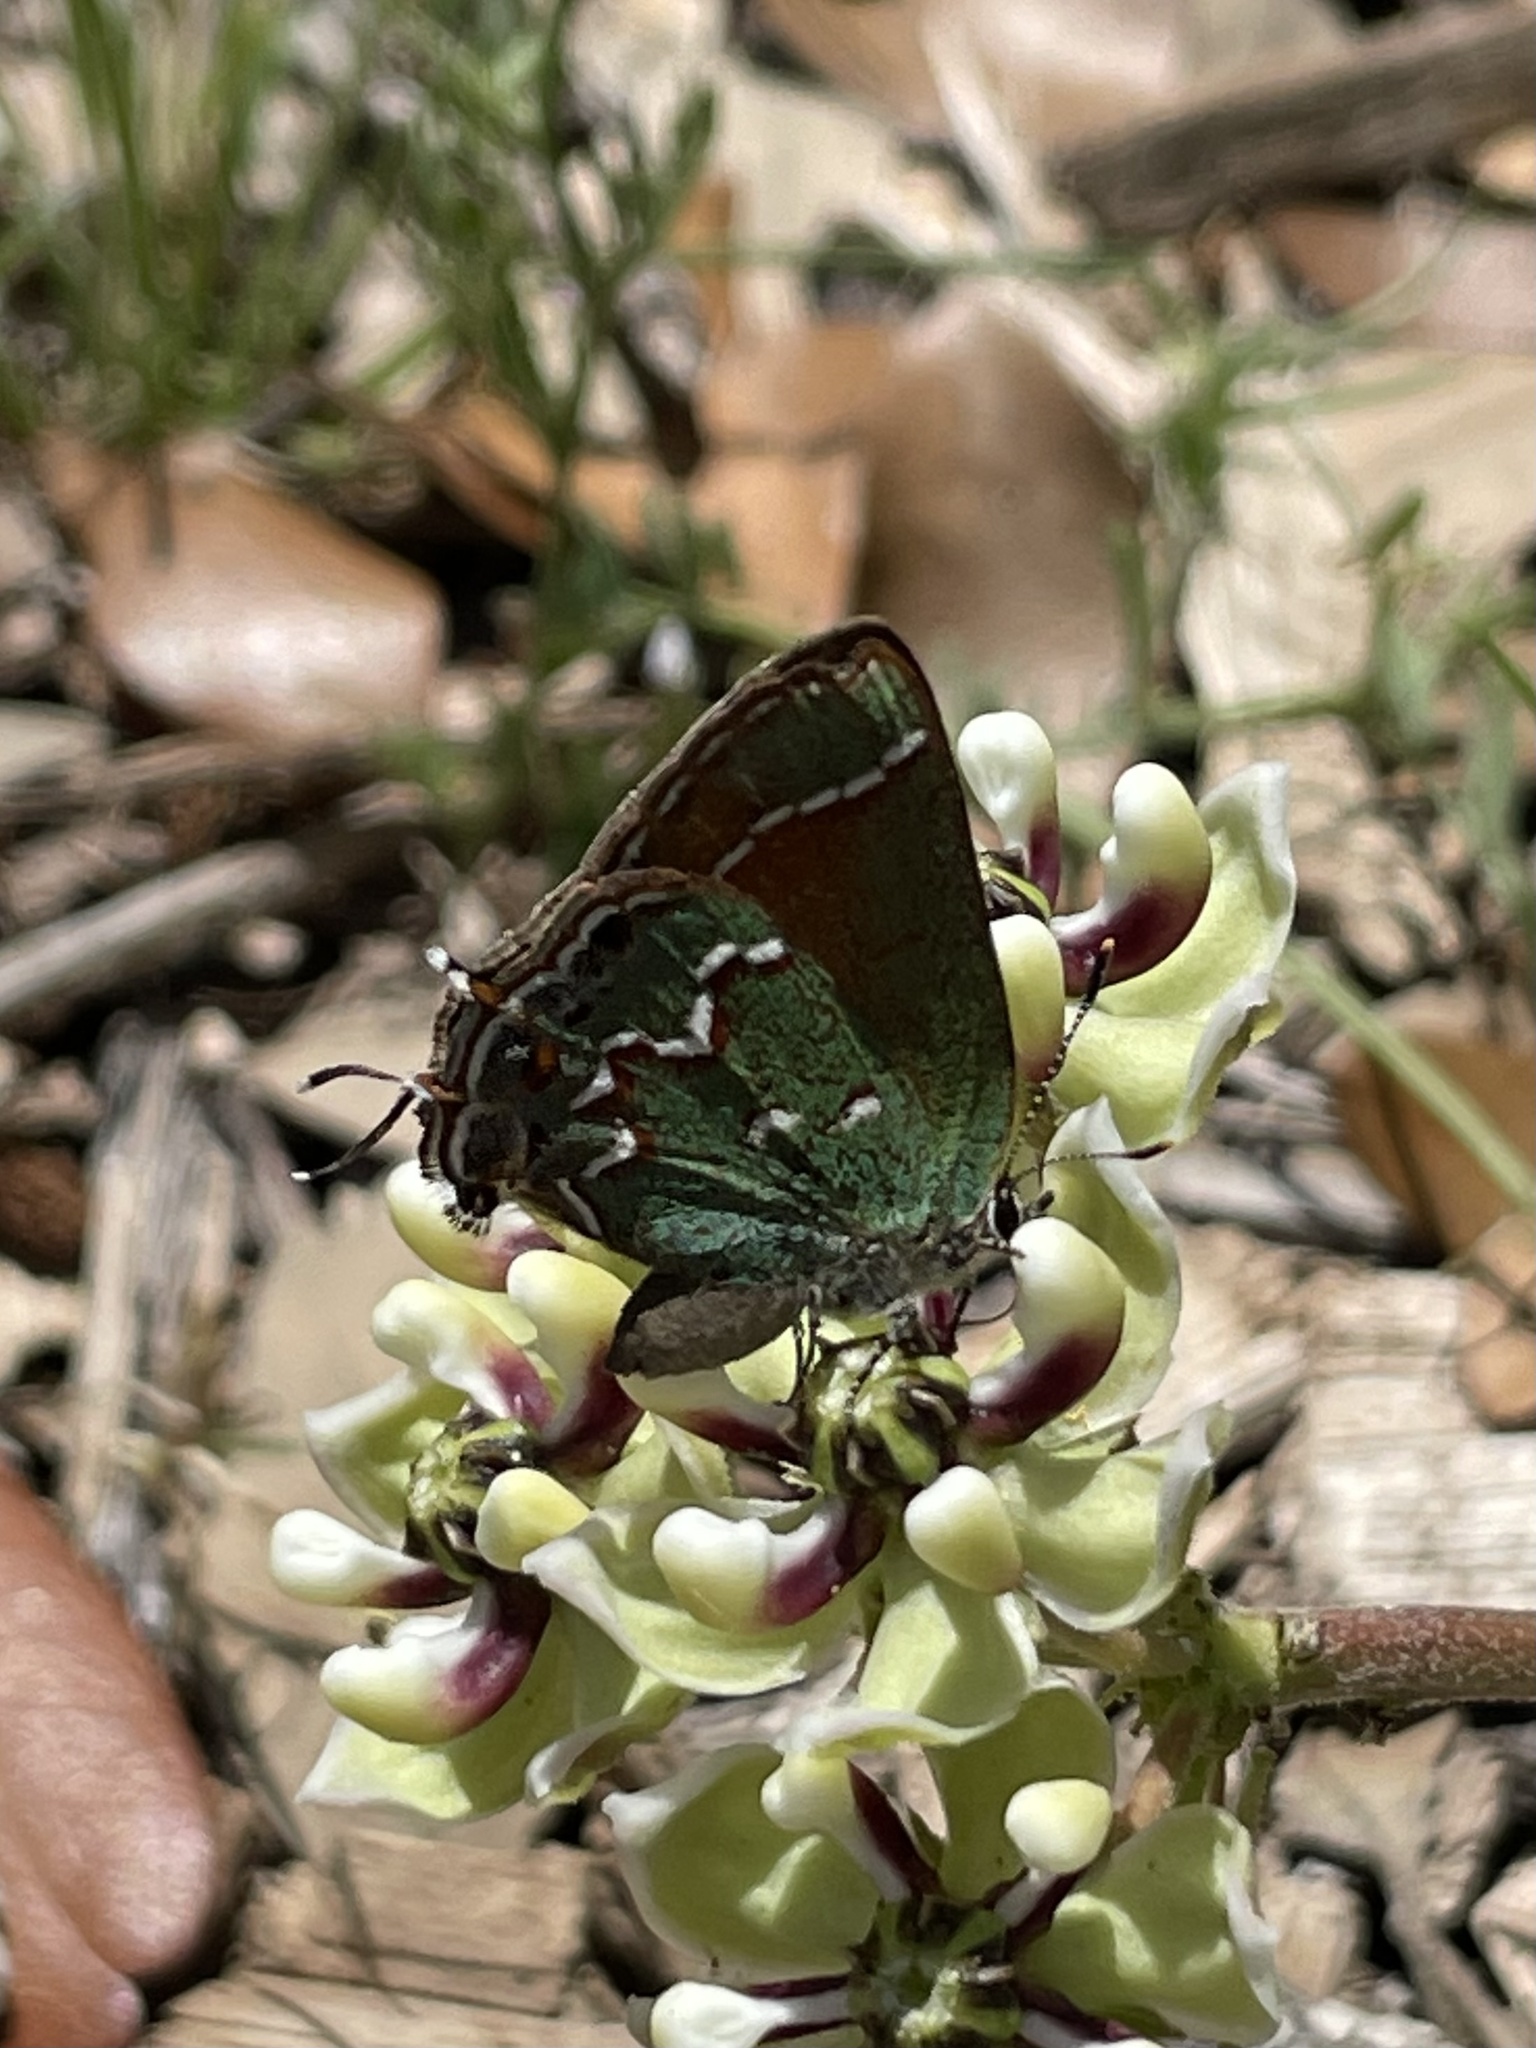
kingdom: Animalia
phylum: Arthropoda
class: Insecta
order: Lepidoptera
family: Lycaenidae
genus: Mitoura
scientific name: Mitoura gryneus
